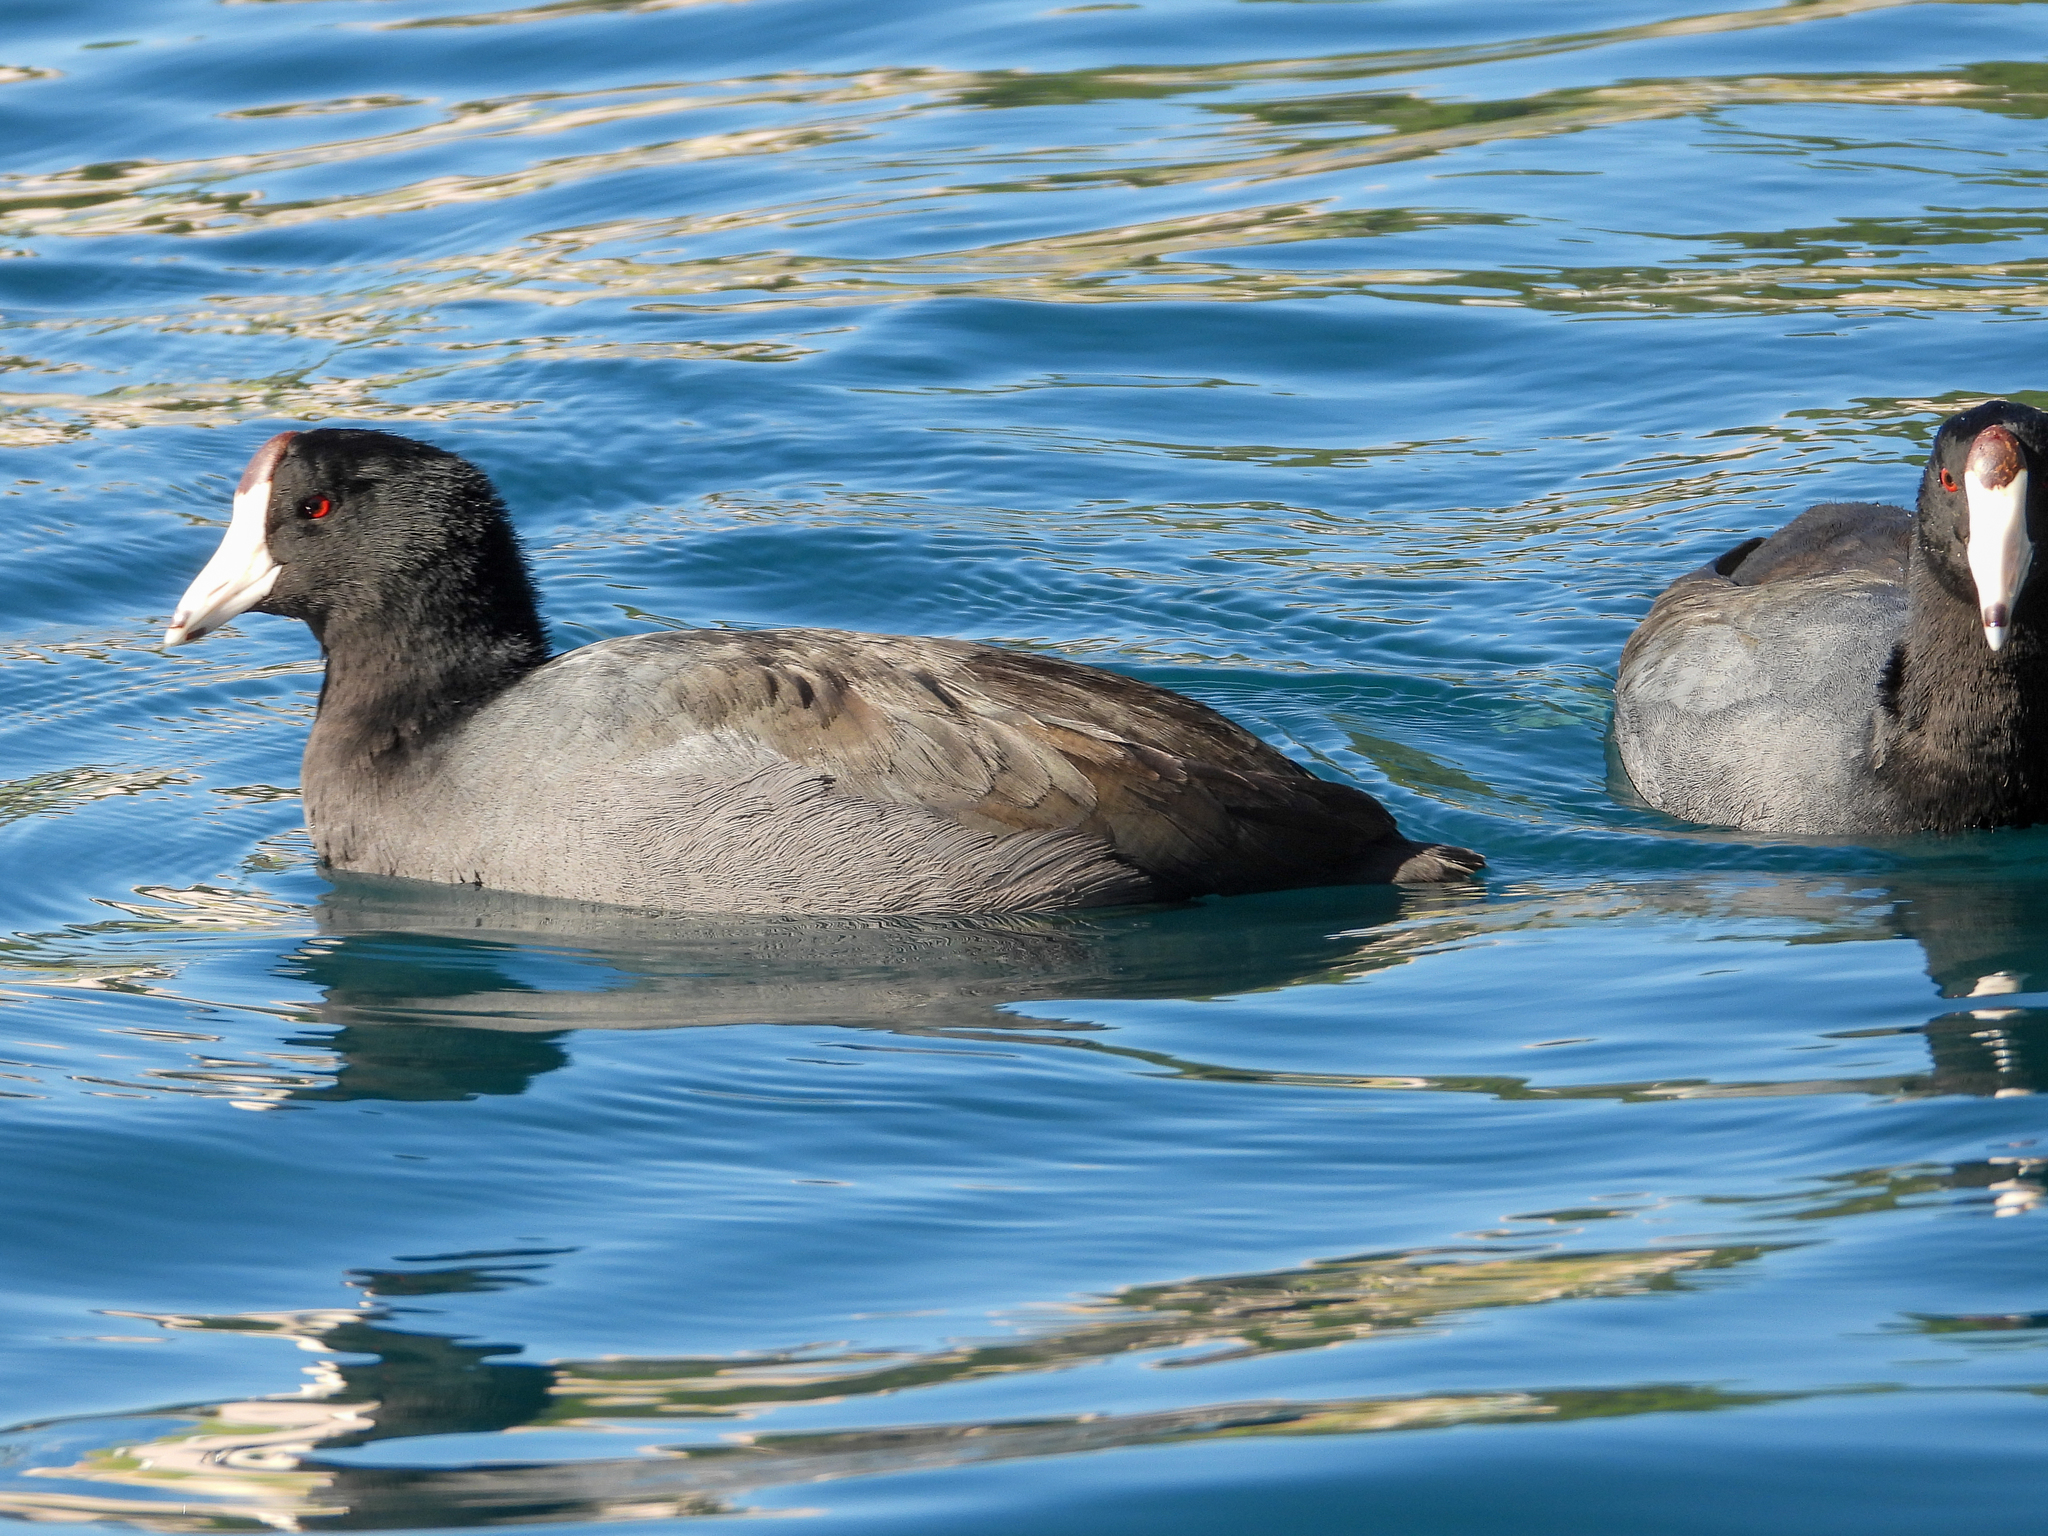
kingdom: Animalia
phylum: Chordata
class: Aves
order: Gruiformes
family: Rallidae
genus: Fulica
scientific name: Fulica americana
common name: American coot
